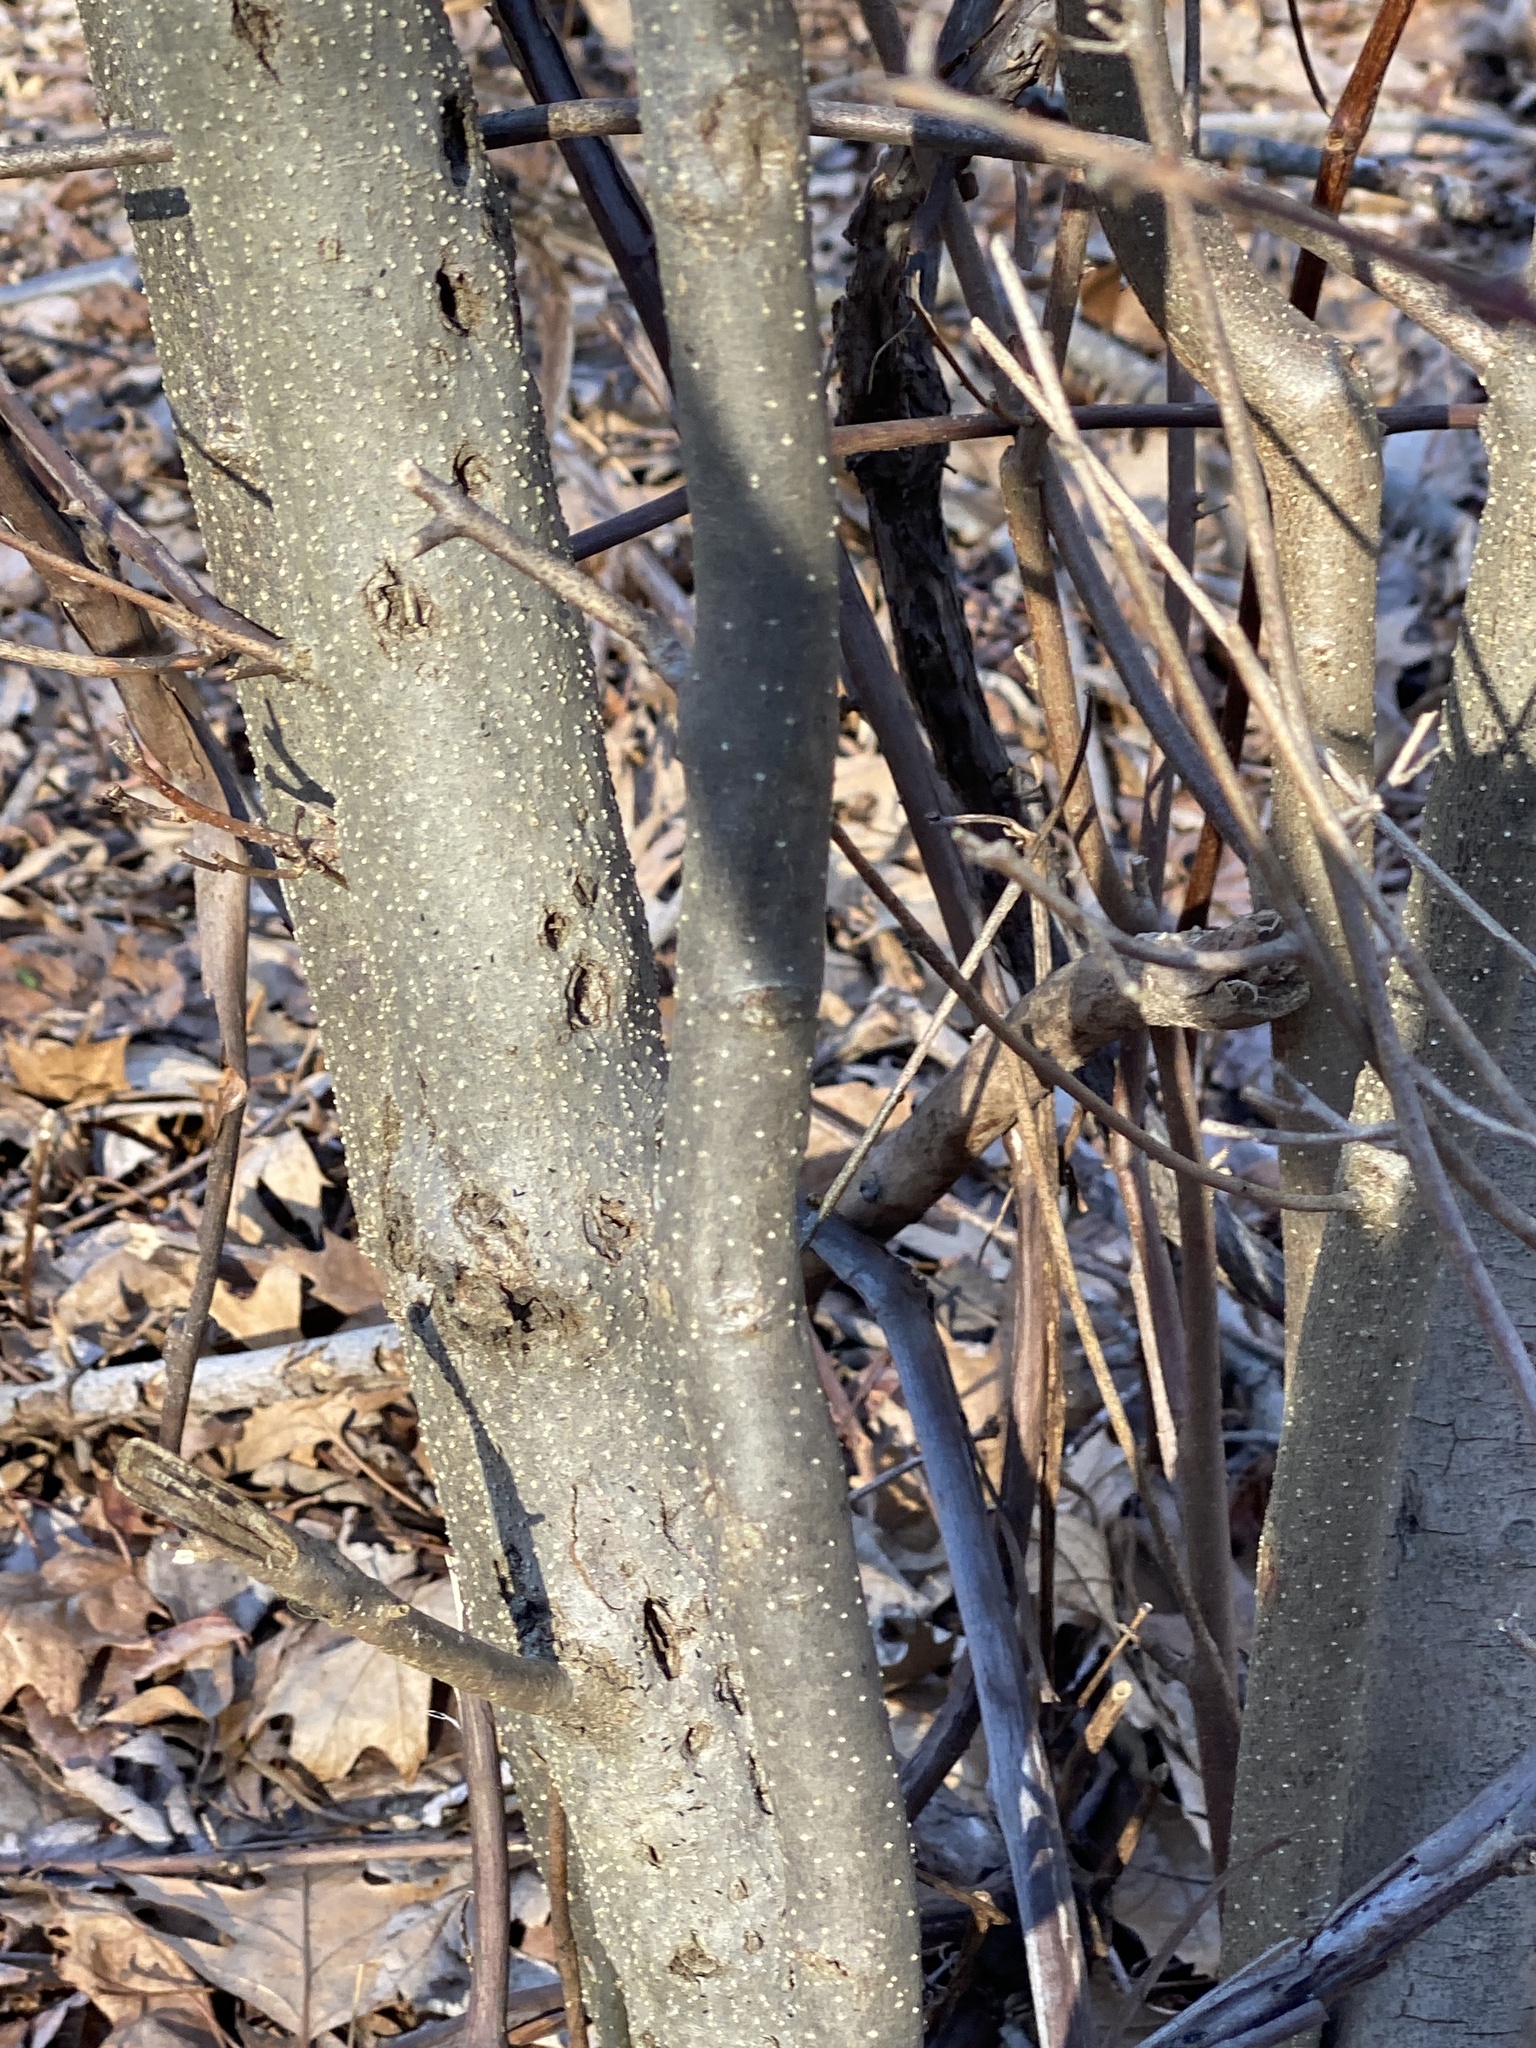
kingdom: Plantae
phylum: Tracheophyta
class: Magnoliopsida
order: Laurales
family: Lauraceae
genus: Lindera
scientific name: Lindera benzoin
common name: Spicebush
